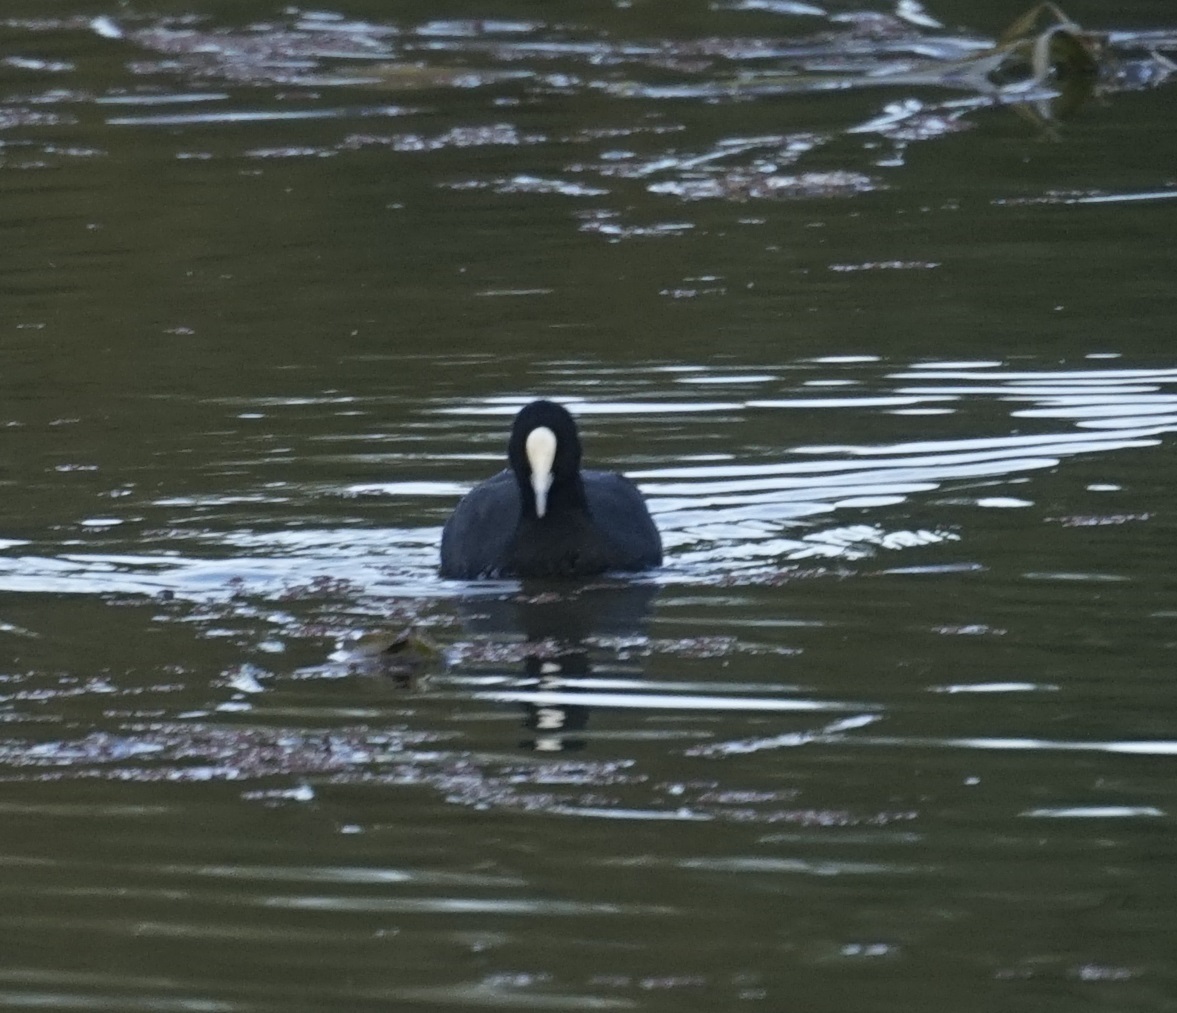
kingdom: Animalia
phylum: Chordata
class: Aves
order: Gruiformes
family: Rallidae
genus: Fulica
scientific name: Fulica atra
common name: Eurasian coot
